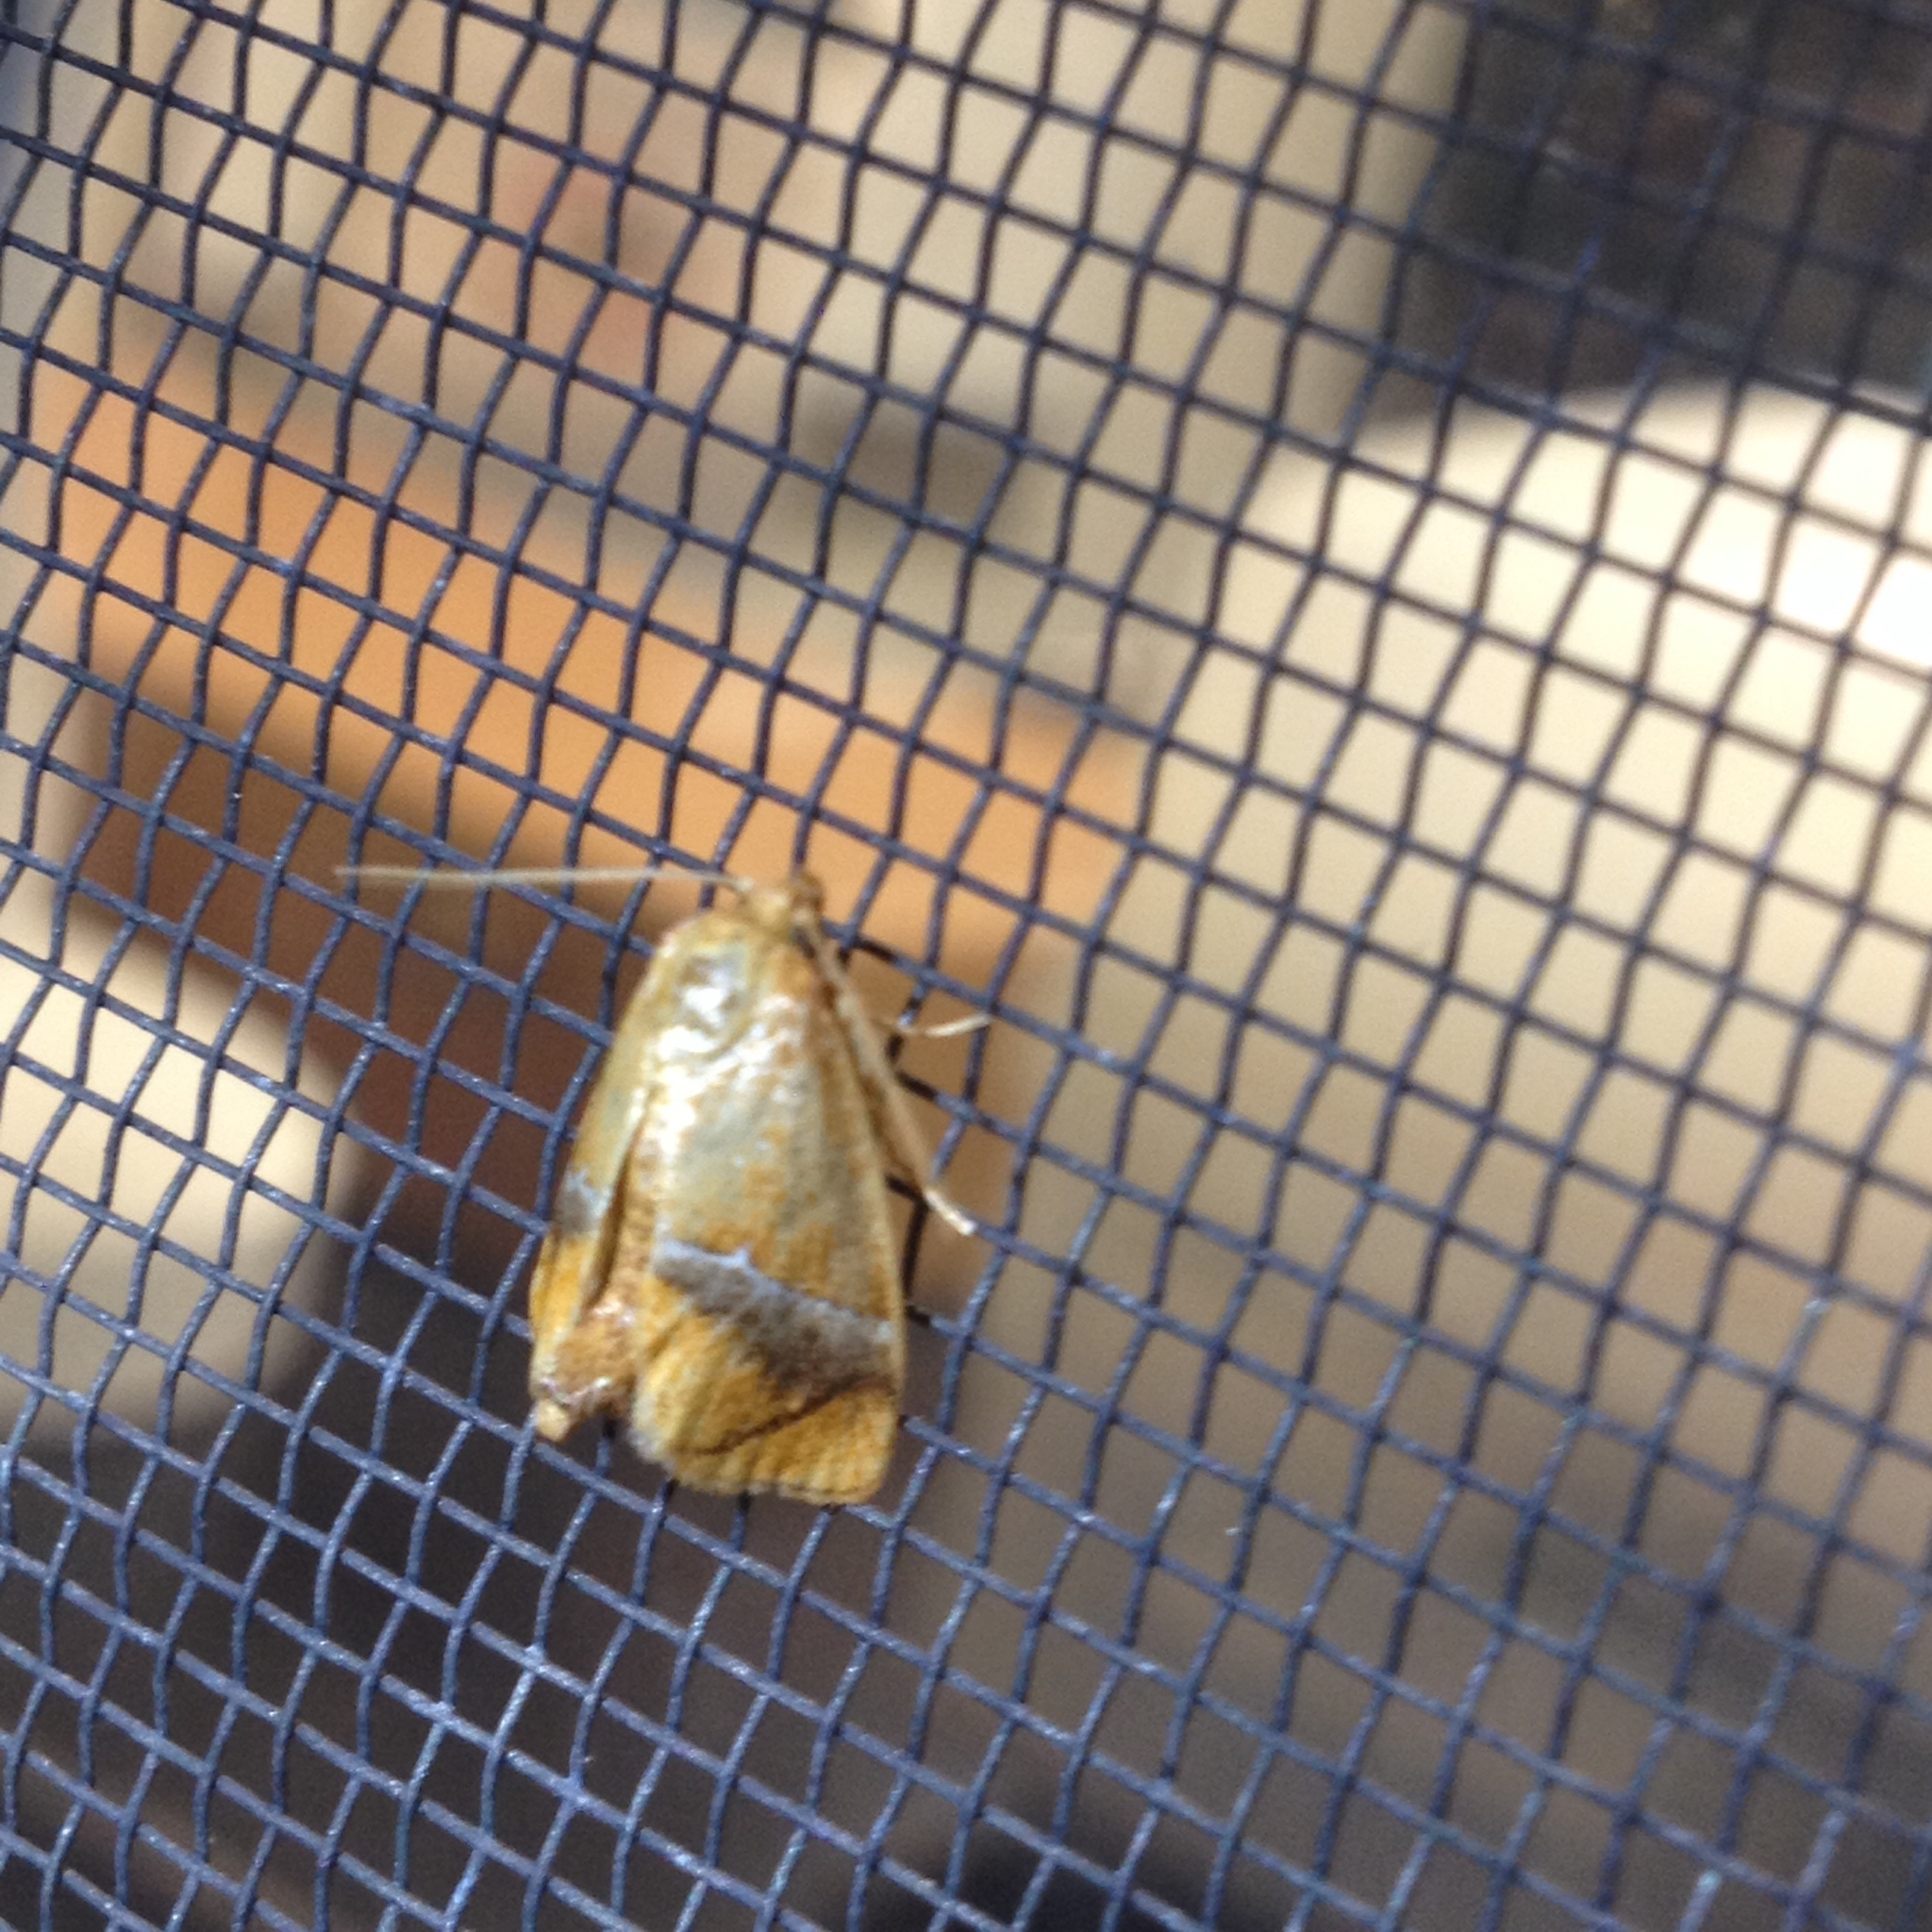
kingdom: Animalia
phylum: Arthropoda
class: Insecta
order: Lepidoptera
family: Limacodidae
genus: Lithacodes
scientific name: Lithacodes fasciola
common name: Yellow-shouldered slug moth
